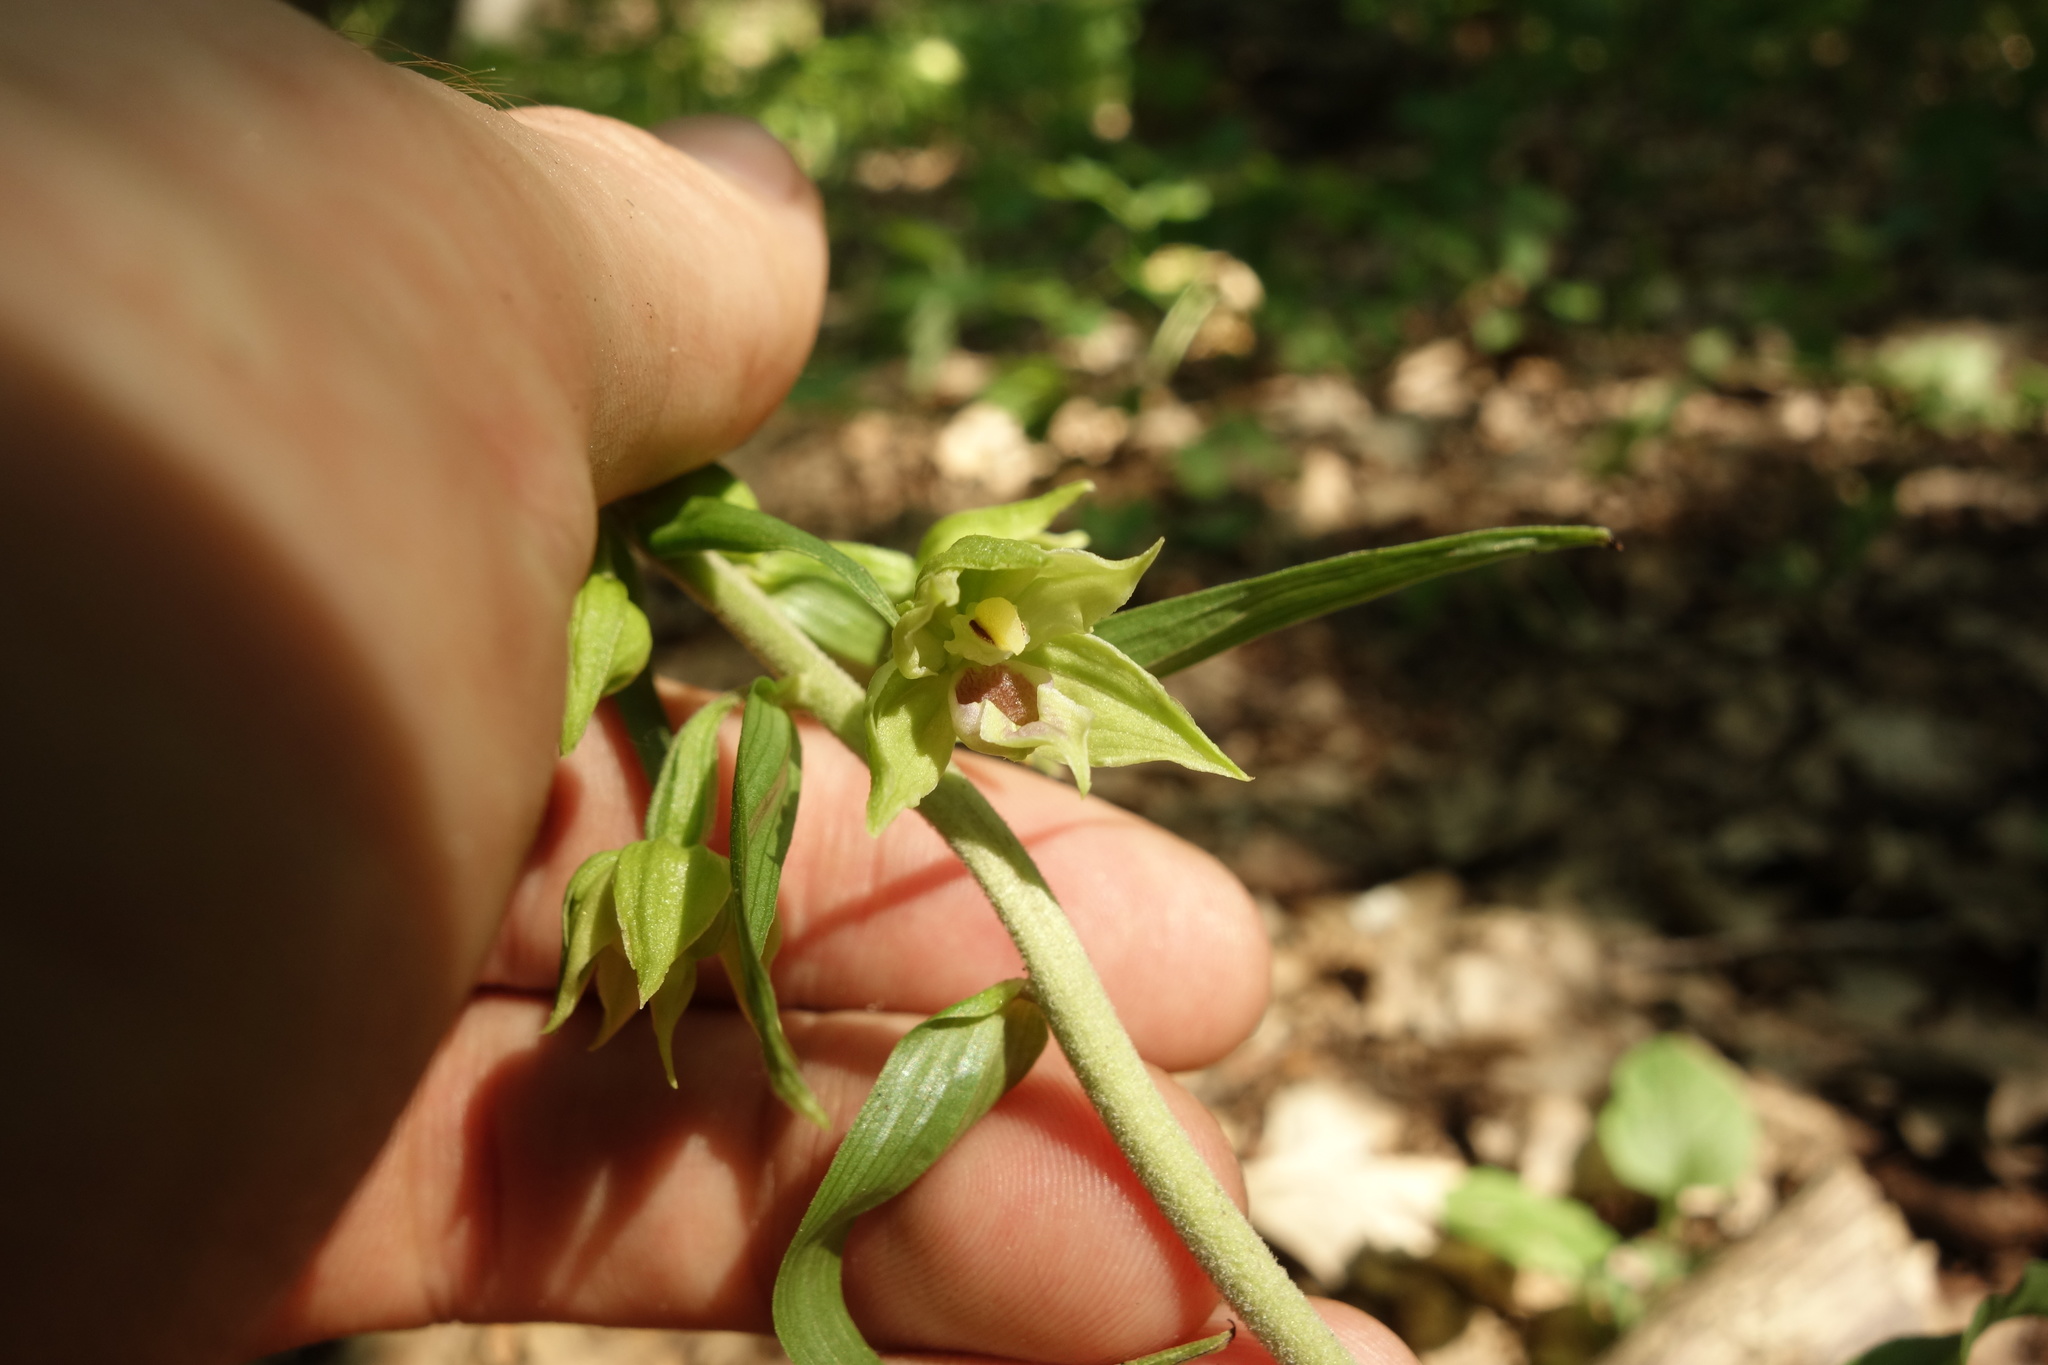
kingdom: Plantae
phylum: Tracheophyta
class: Liliopsida
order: Asparagales
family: Orchidaceae
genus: Epipactis
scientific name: Epipactis leptochila
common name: Narrow-lipped helleborine
